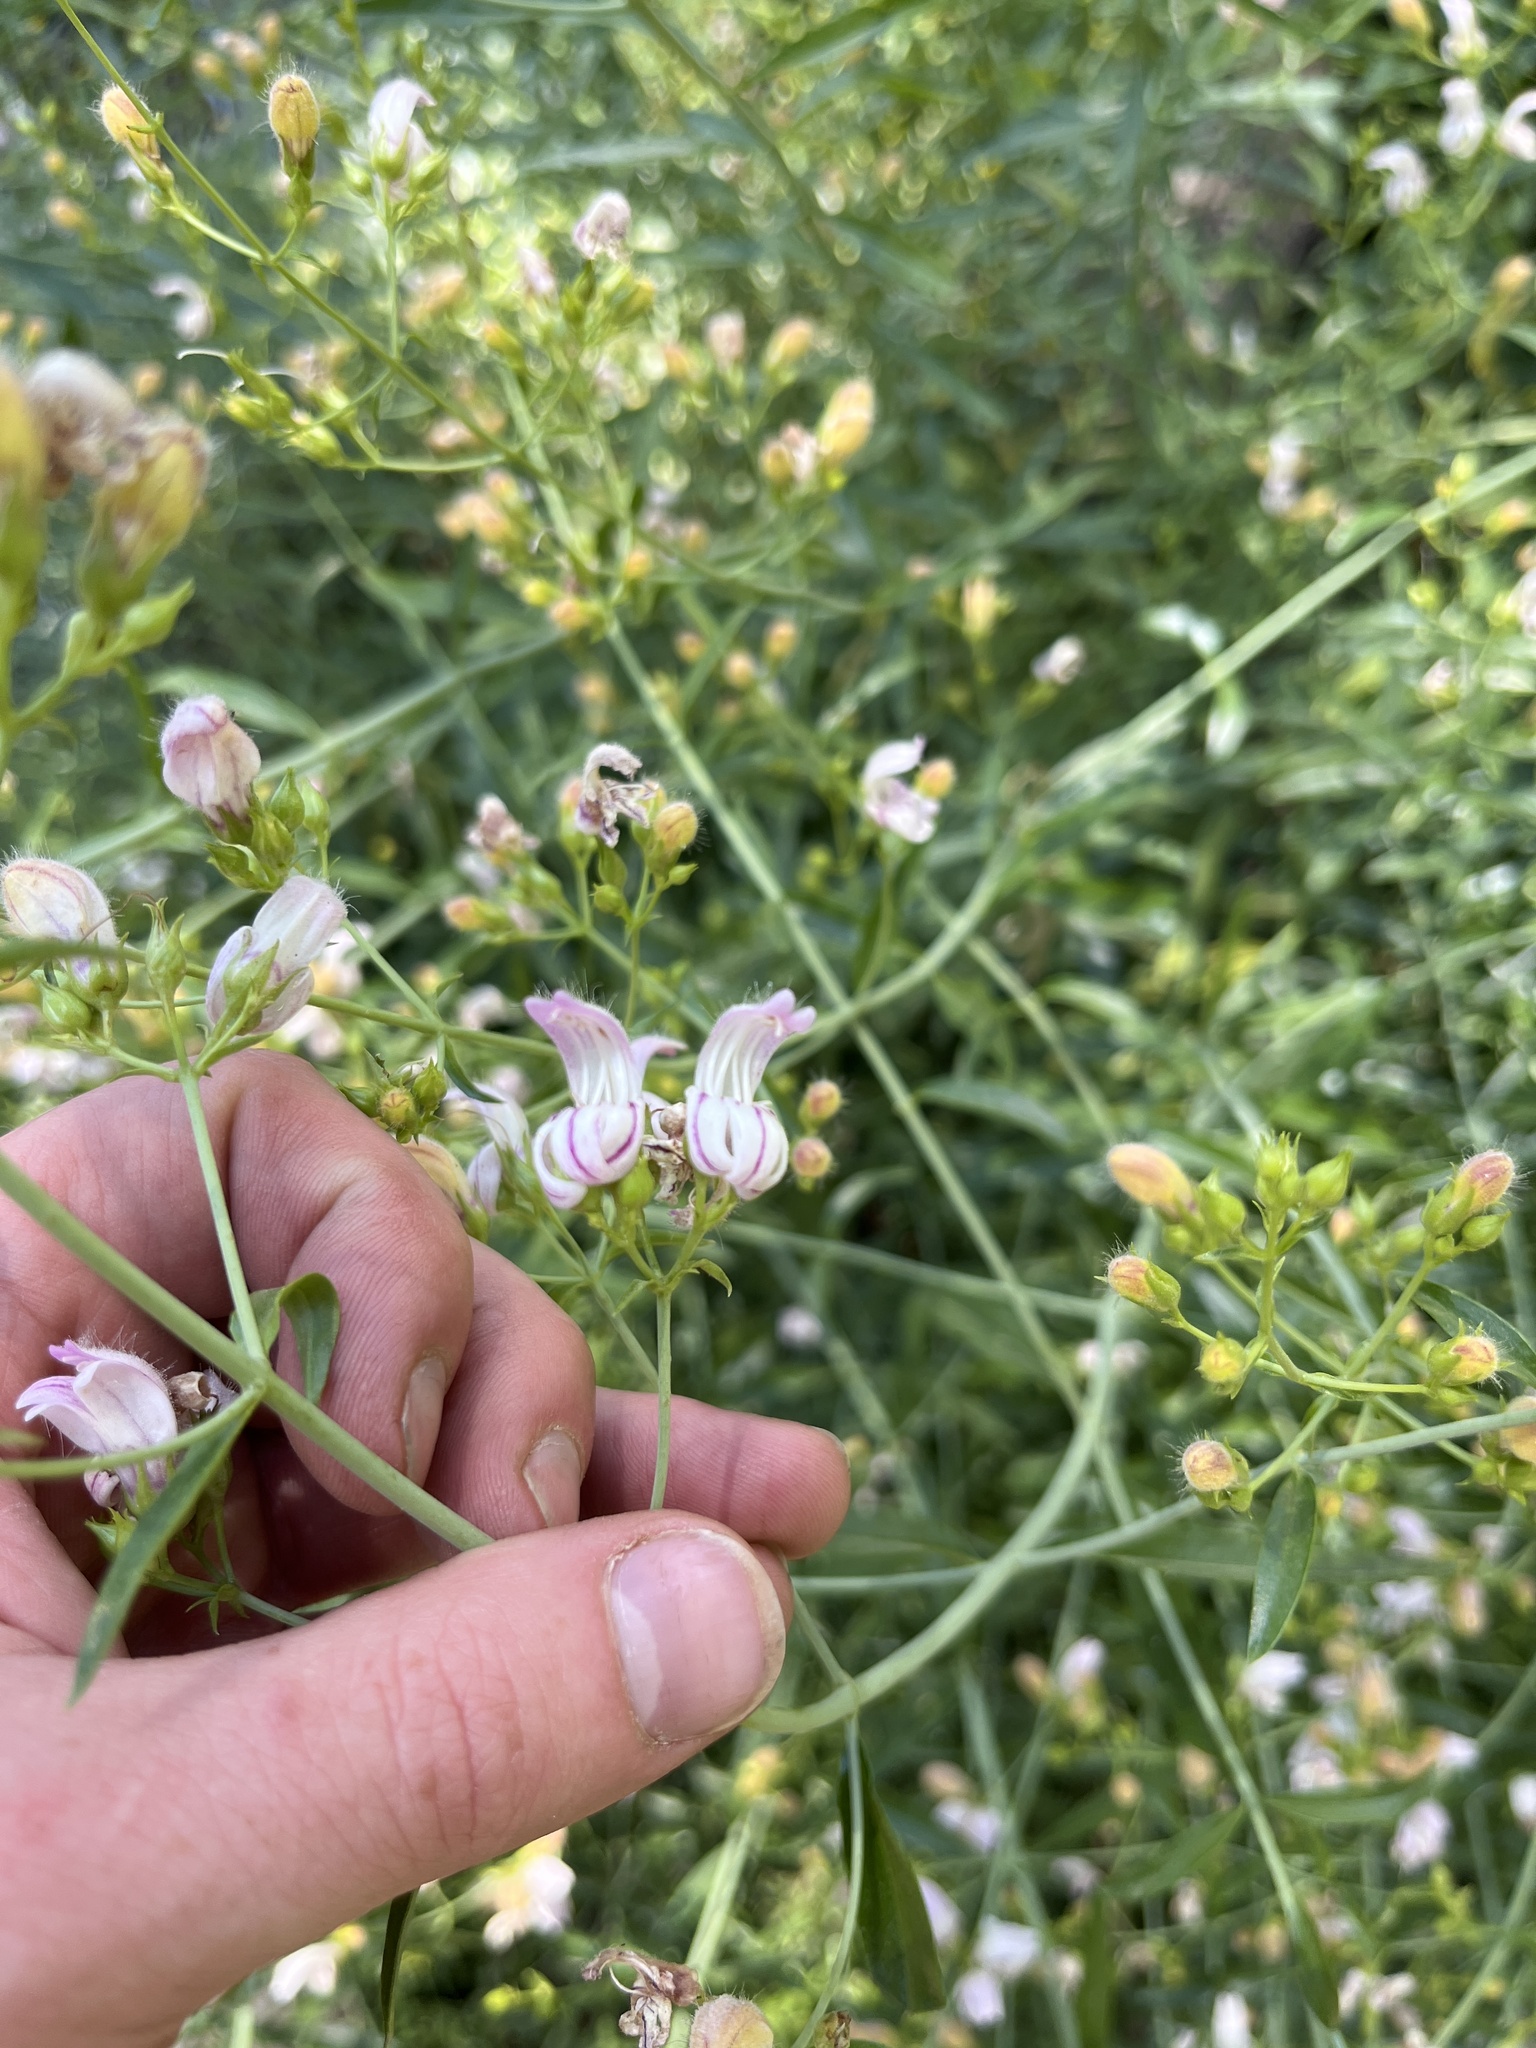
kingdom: Plantae
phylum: Tracheophyta
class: Magnoliopsida
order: Lamiales
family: Plantaginaceae
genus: Keckiella
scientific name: Keckiella breviflora
